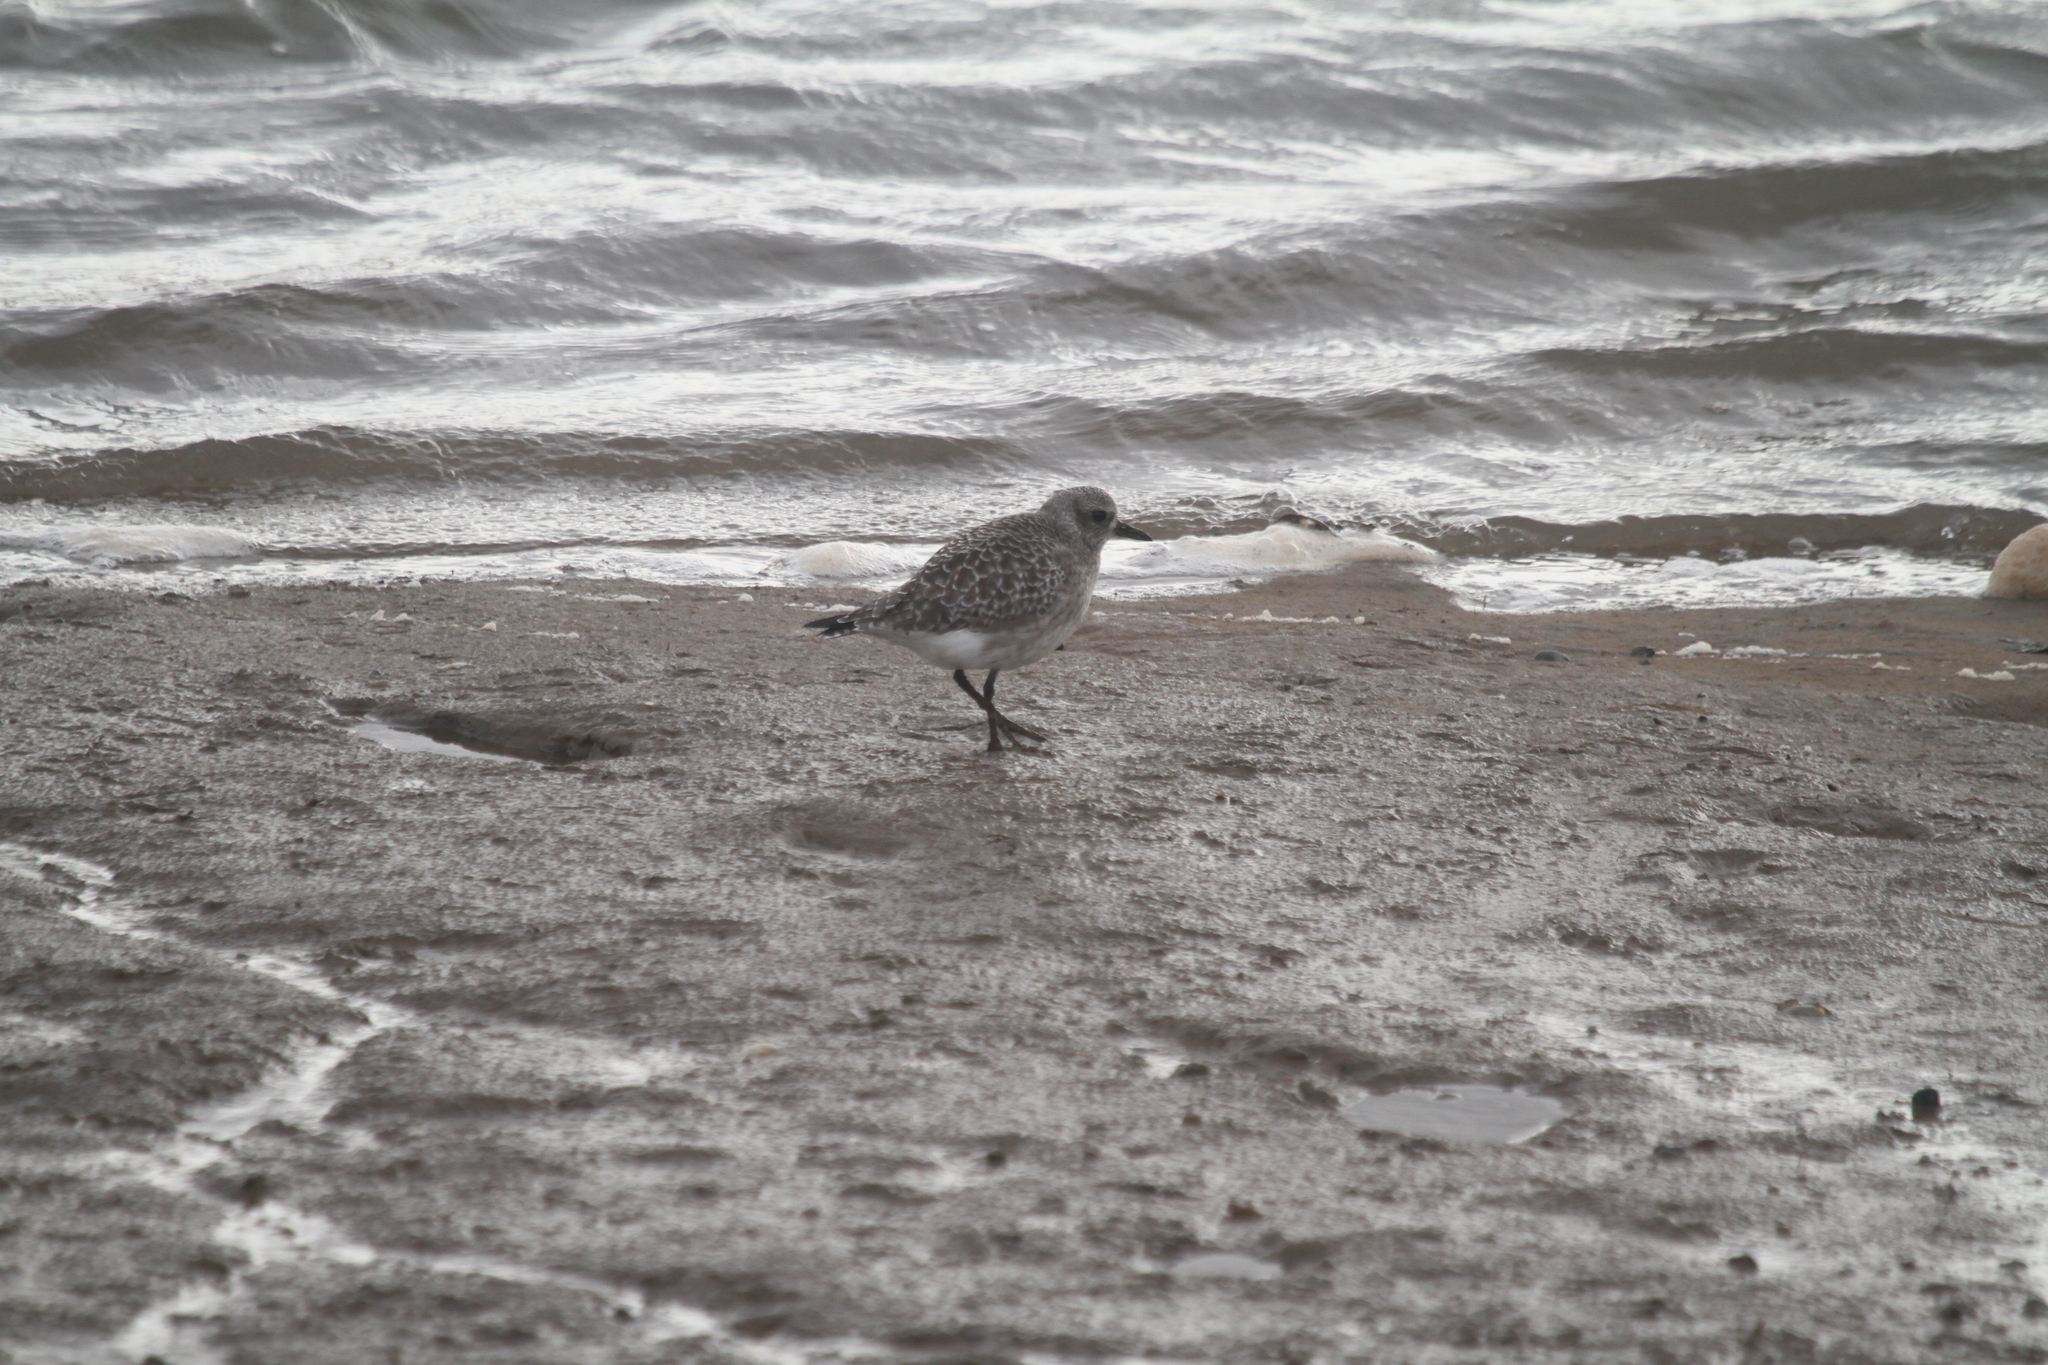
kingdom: Animalia
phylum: Chordata
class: Aves
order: Charadriiformes
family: Charadriidae
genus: Pluvialis
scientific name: Pluvialis squatarola
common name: Grey plover
